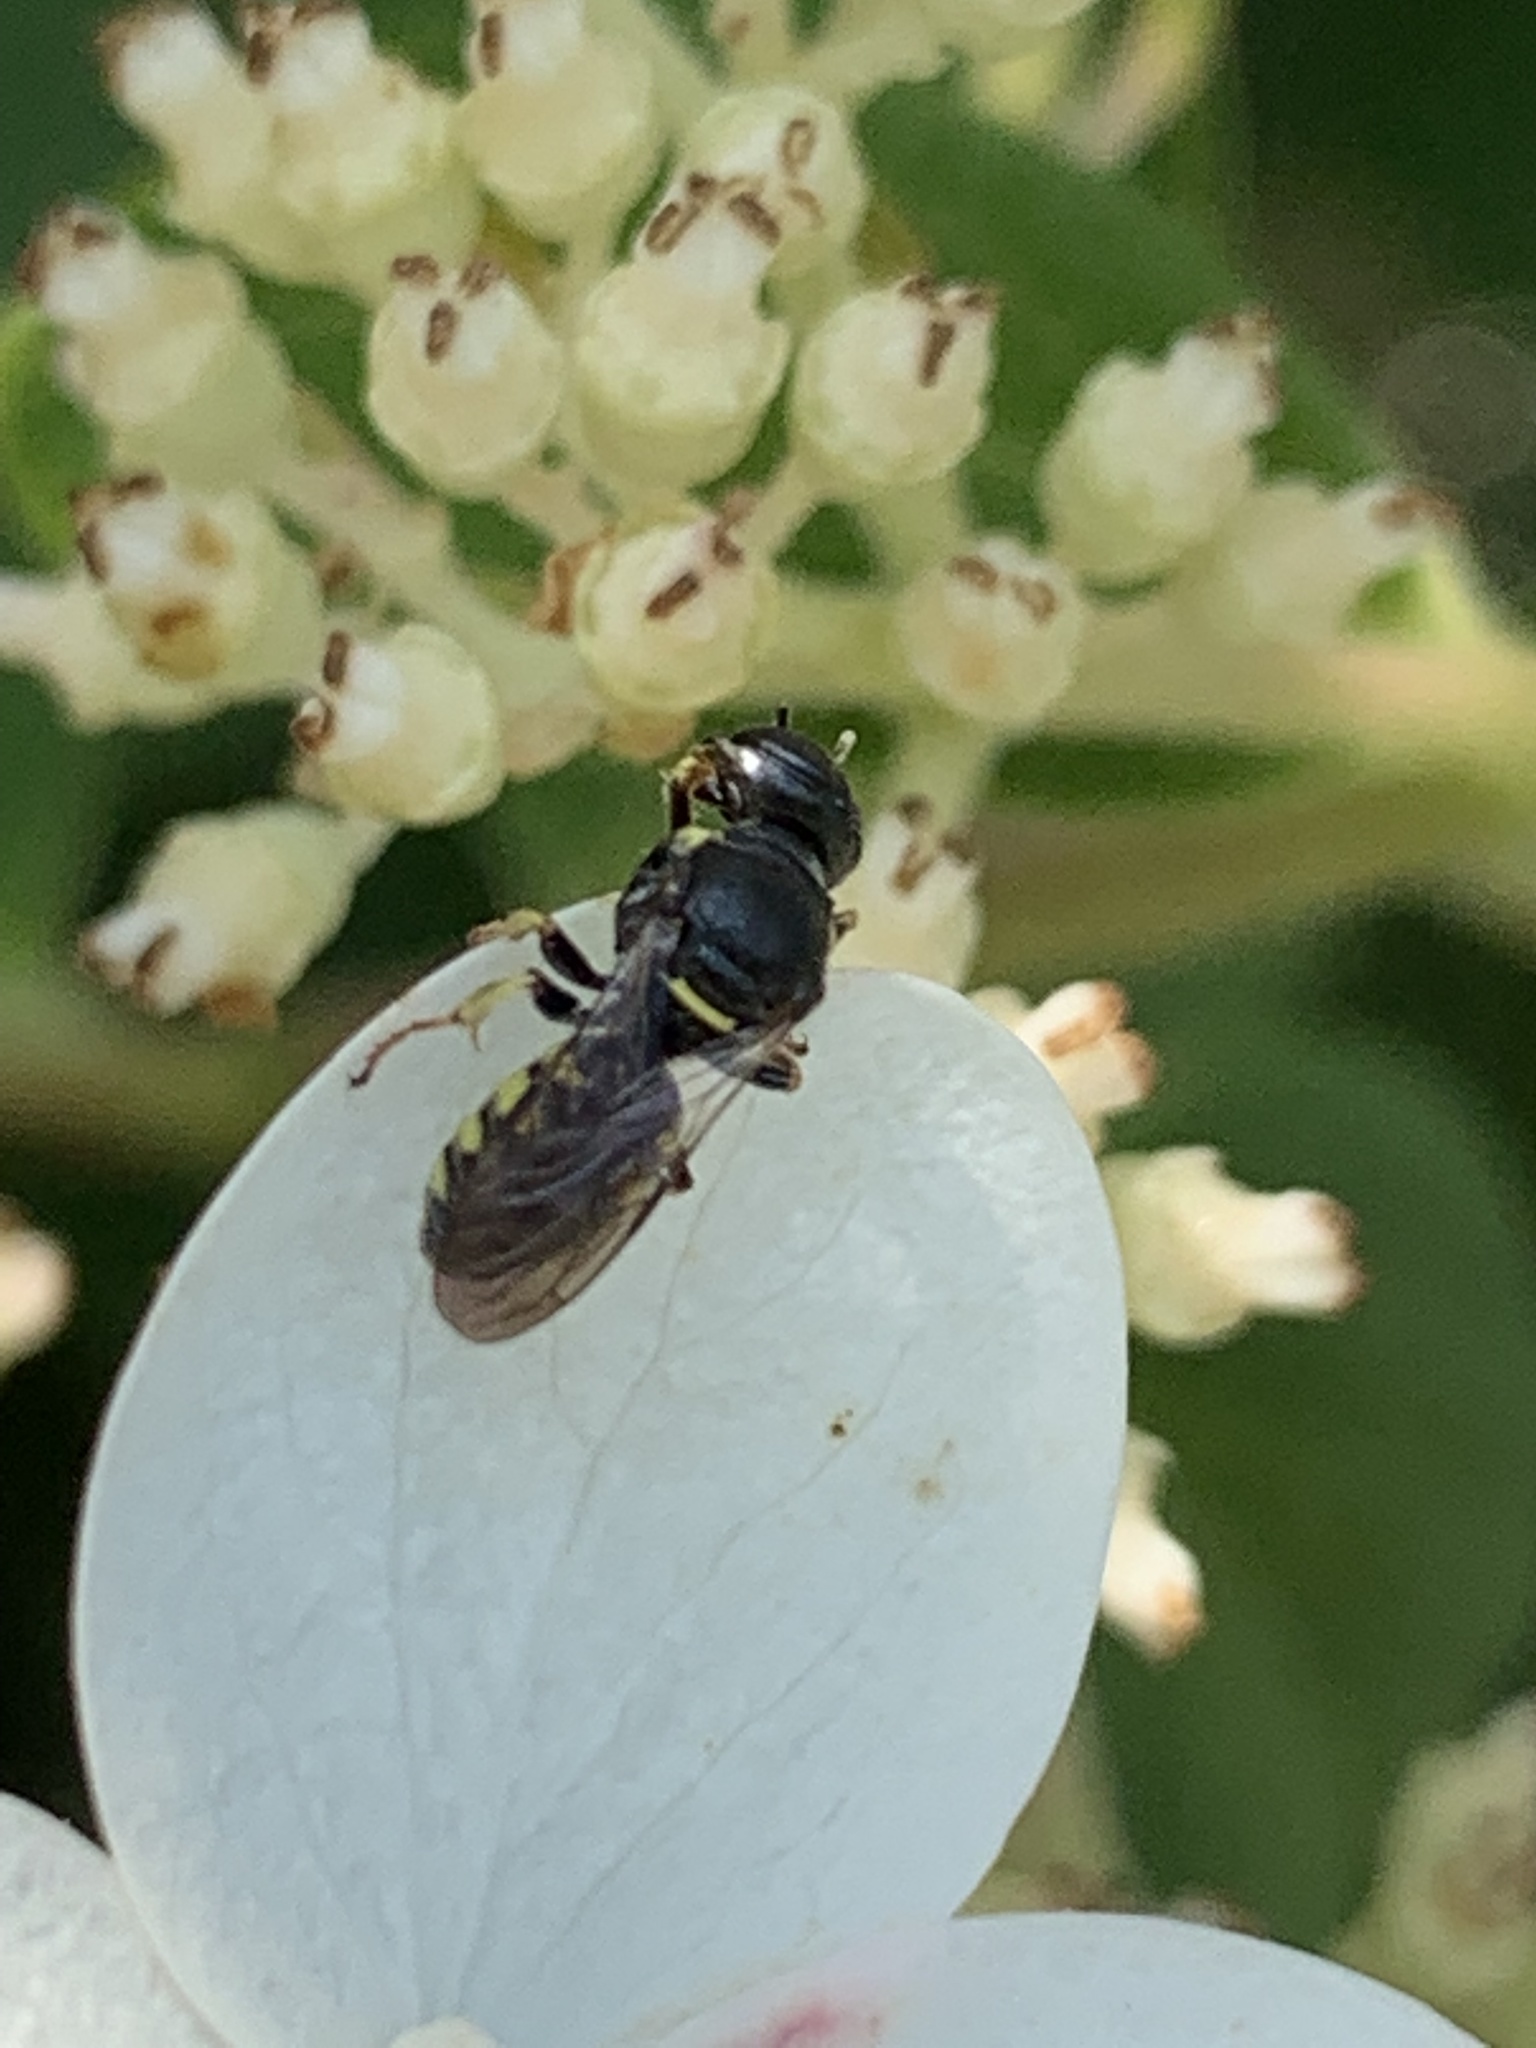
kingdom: Animalia
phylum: Arthropoda
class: Insecta
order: Hymenoptera
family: Crabronidae
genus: Anacrabro
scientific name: Anacrabro ocellatus
